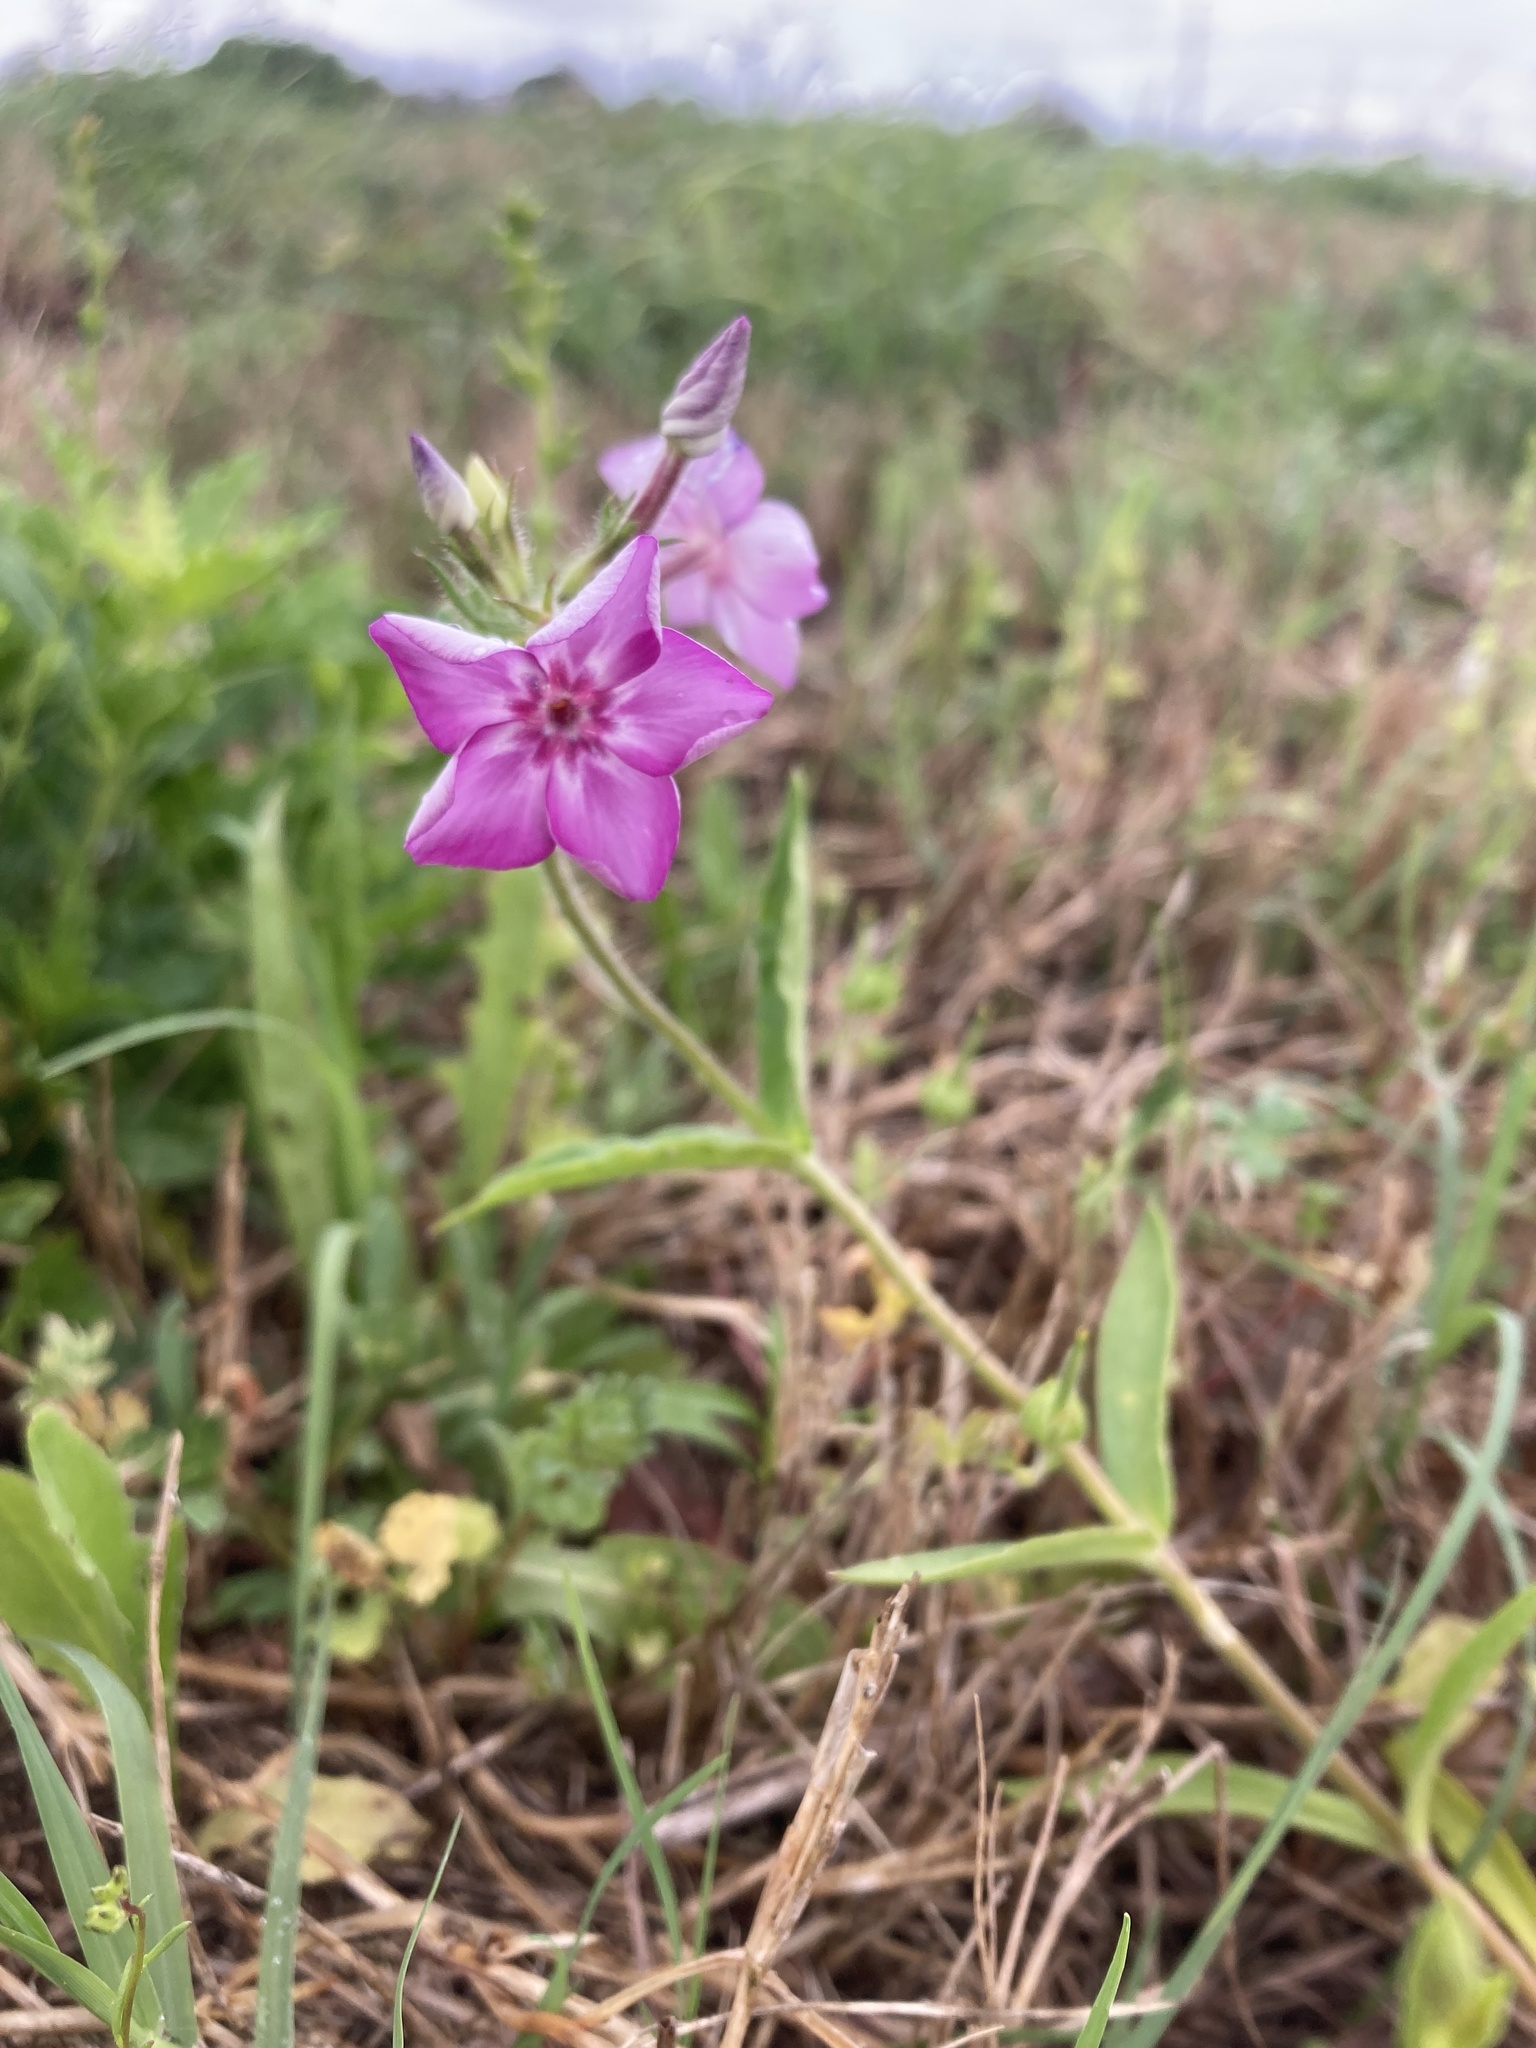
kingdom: Plantae
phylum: Tracheophyta
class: Magnoliopsida
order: Ericales
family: Polemoniaceae
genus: Phlox
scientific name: Phlox drummondii
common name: Drummond's phlox
